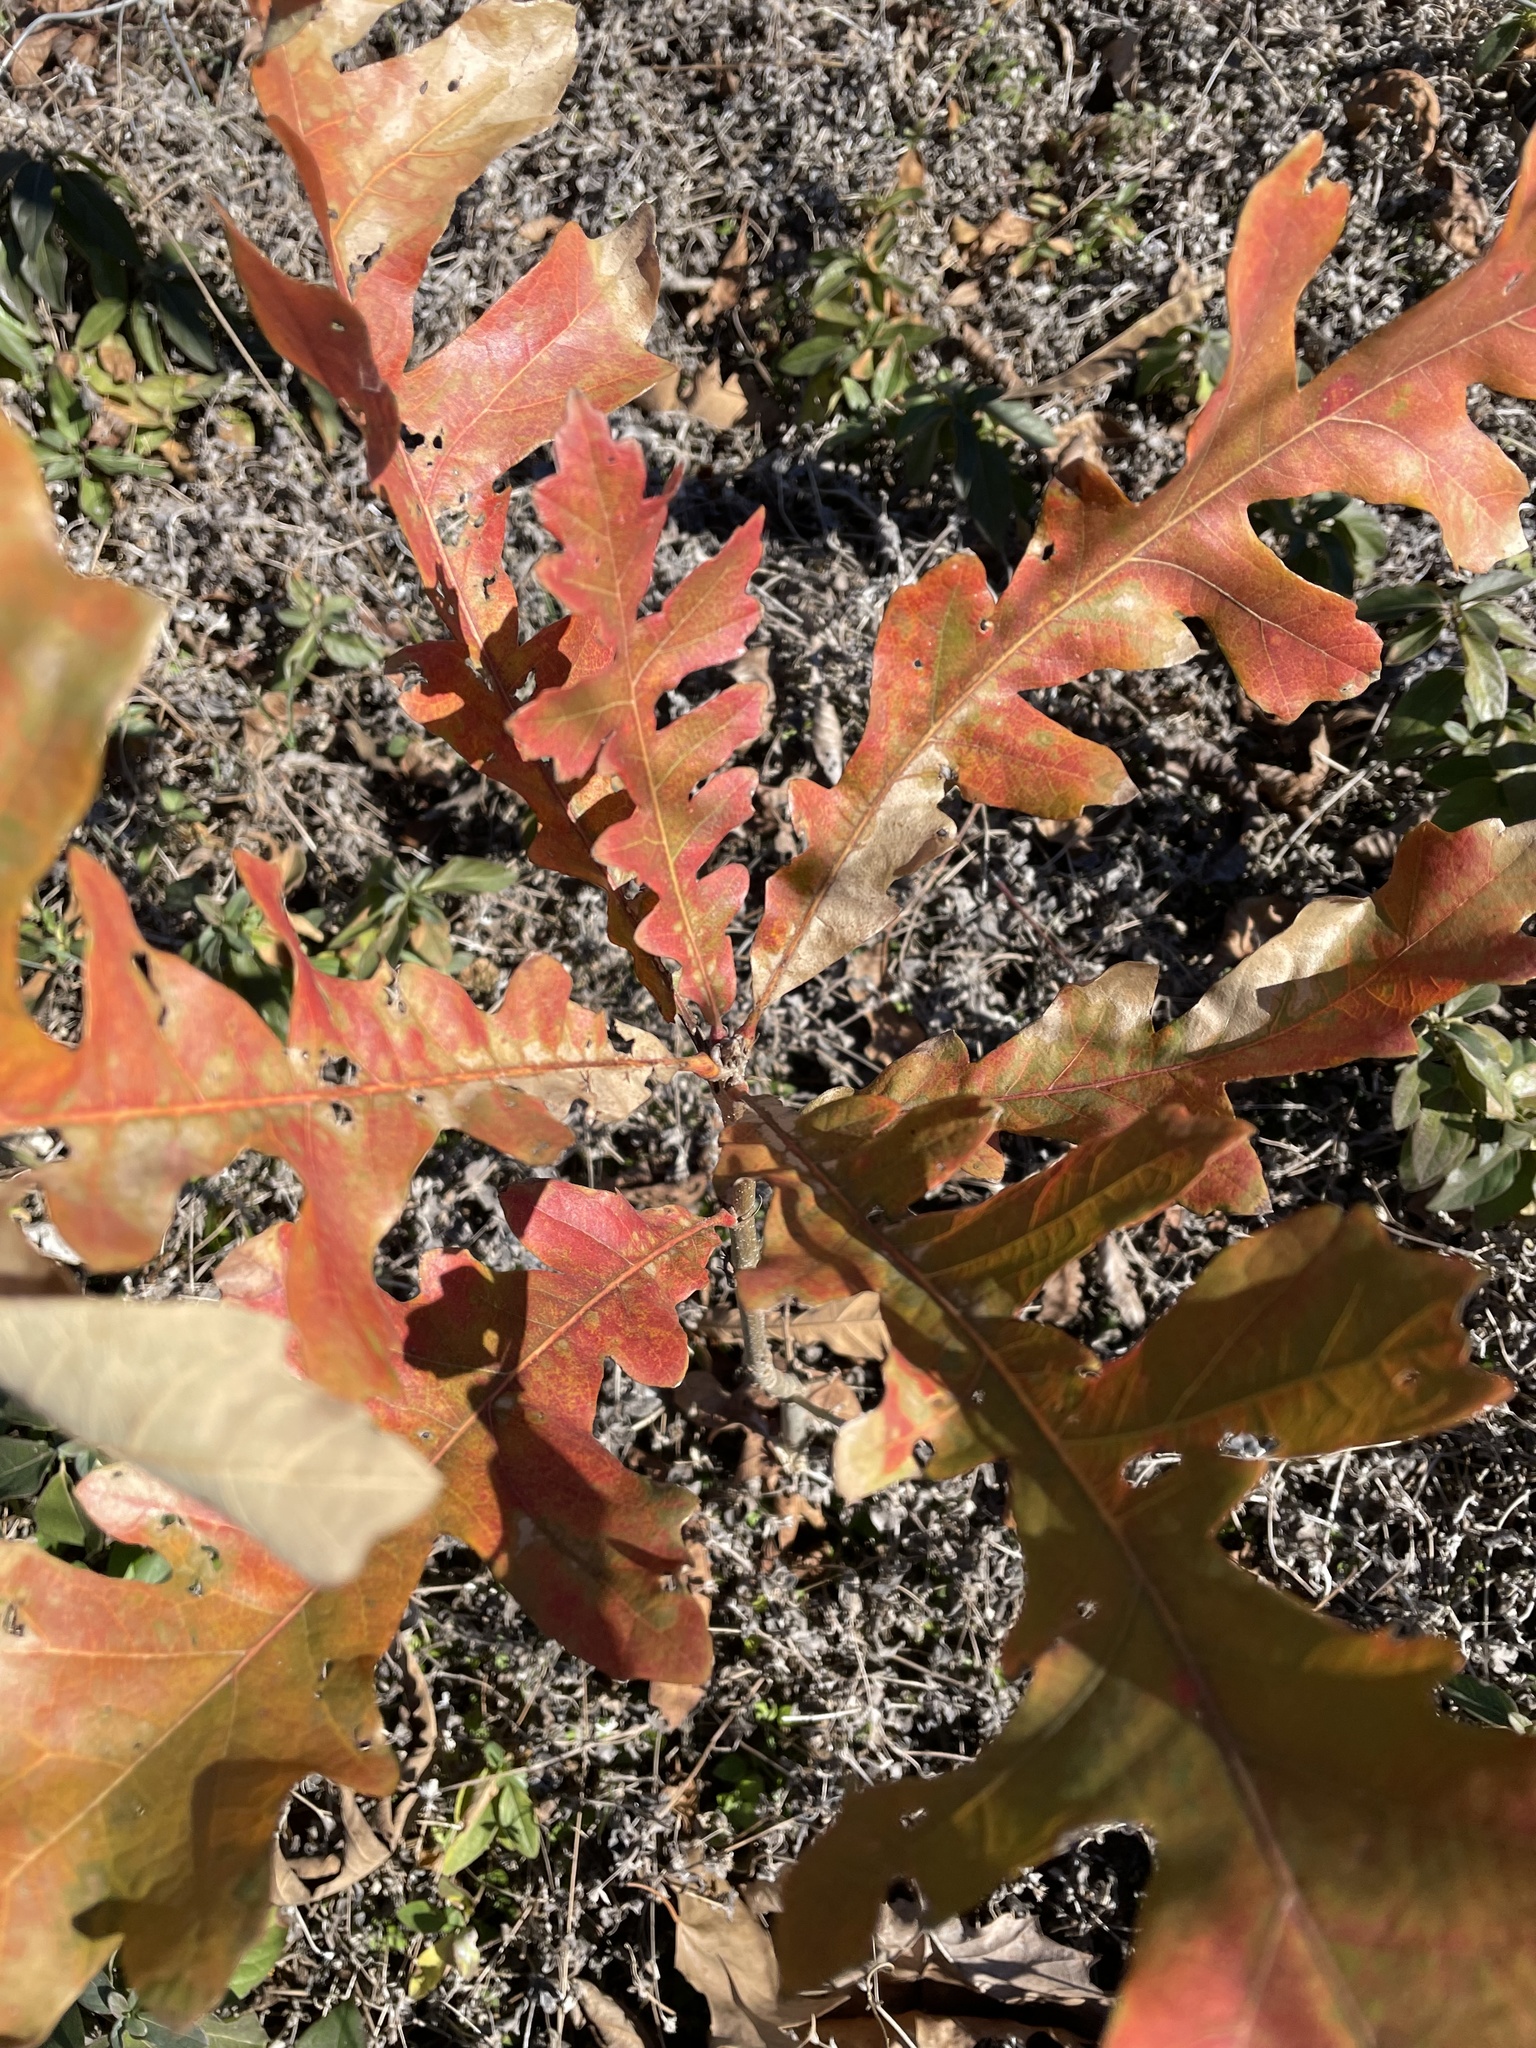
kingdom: Plantae
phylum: Tracheophyta
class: Magnoliopsida
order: Fagales
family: Fagaceae
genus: Quercus
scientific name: Quercus macrocarpa
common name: Bur oak
